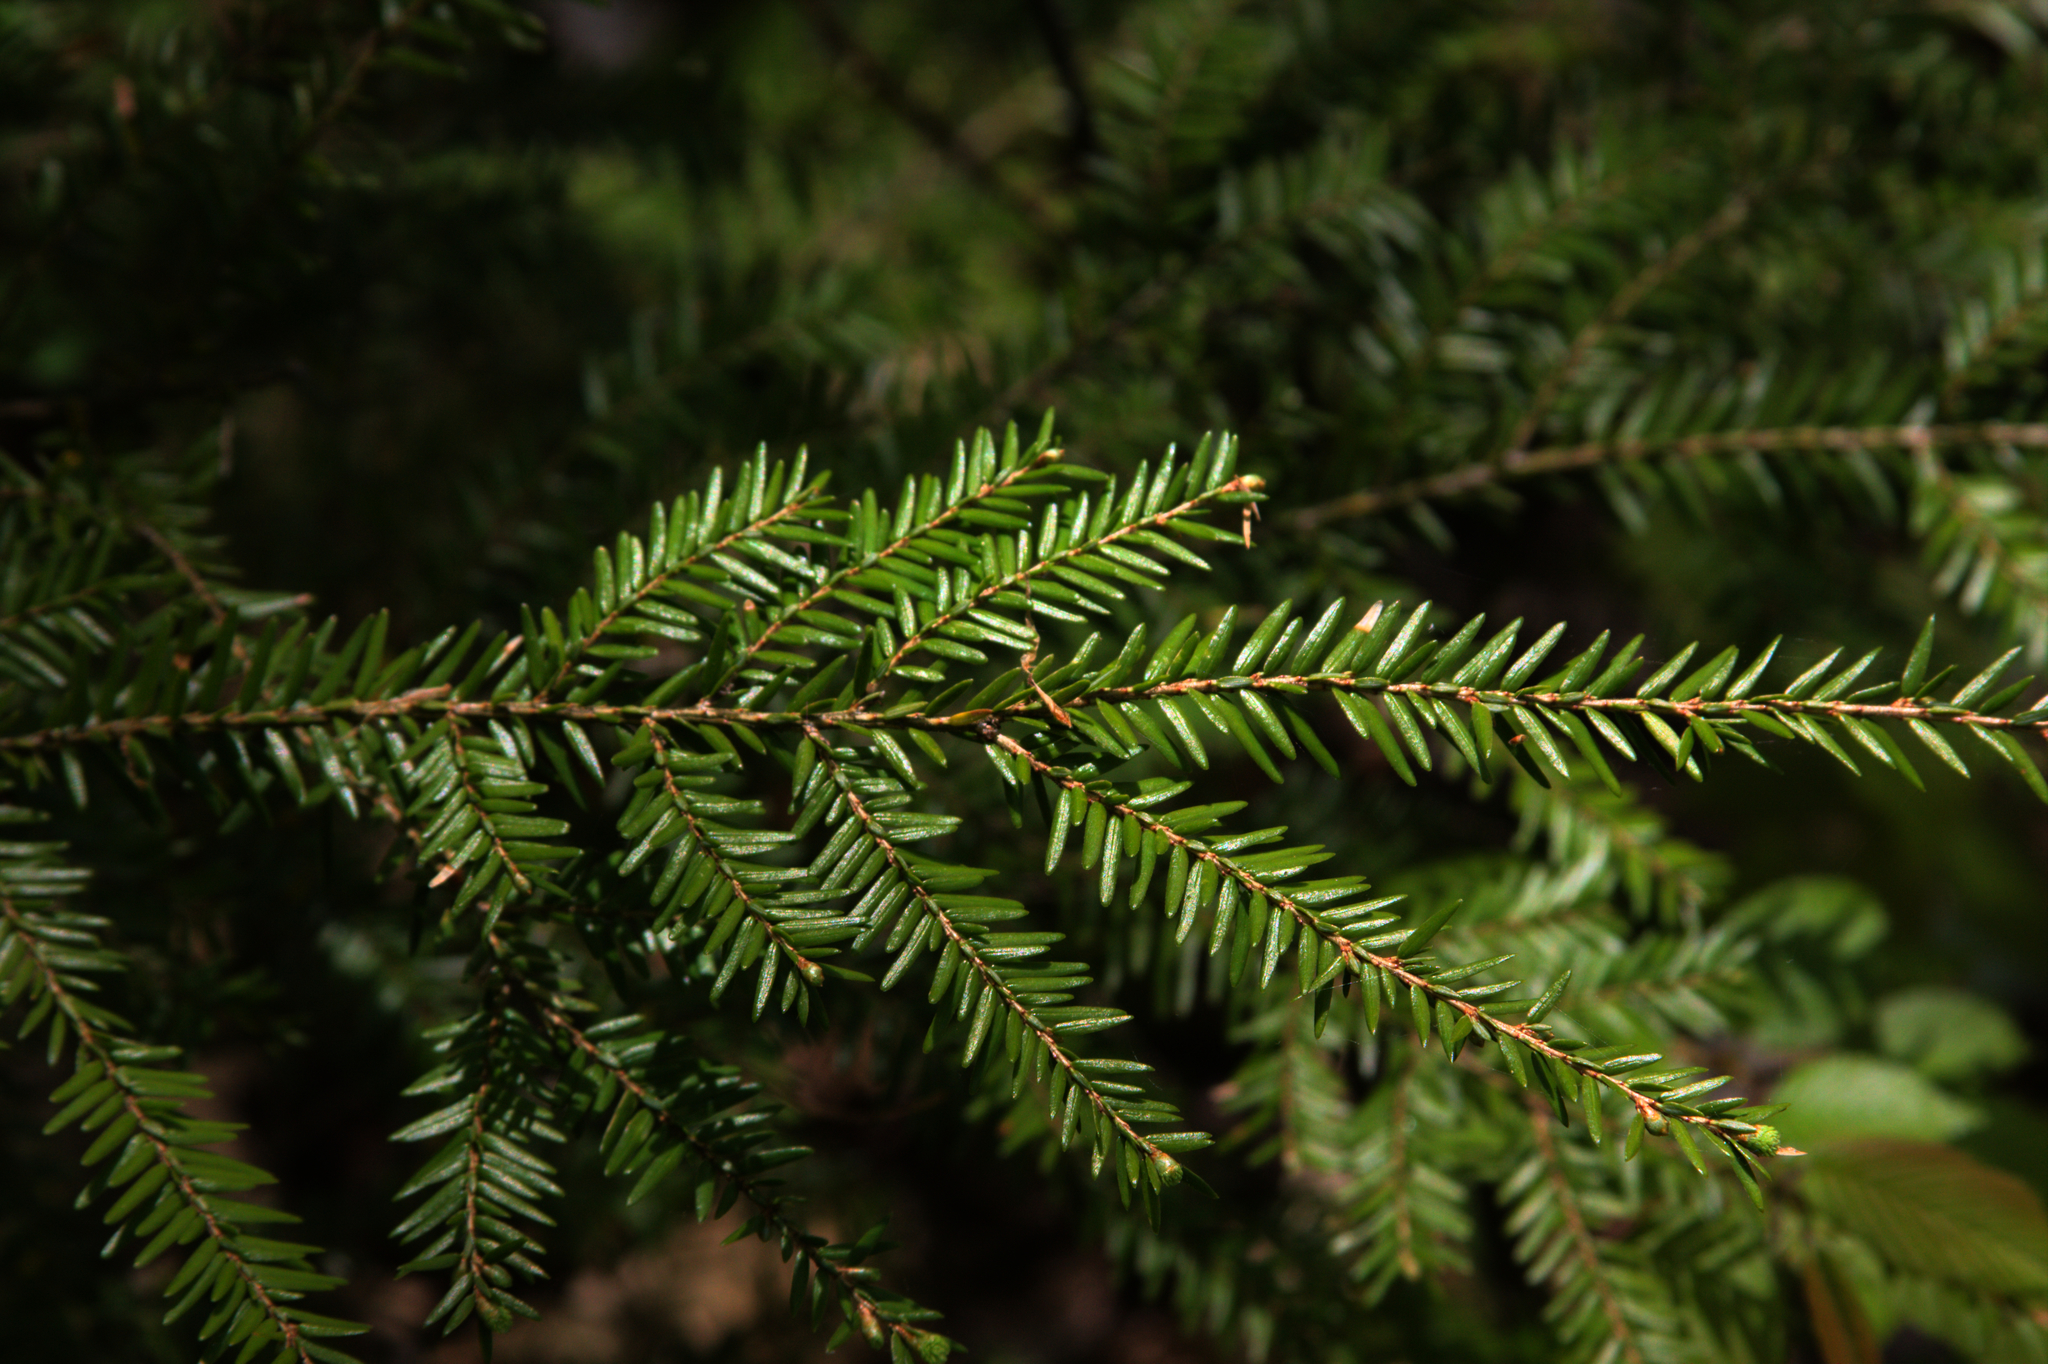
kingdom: Plantae
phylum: Tracheophyta
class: Pinopsida
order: Pinales
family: Pinaceae
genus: Tsuga
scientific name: Tsuga canadensis
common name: Eastern hemlock
